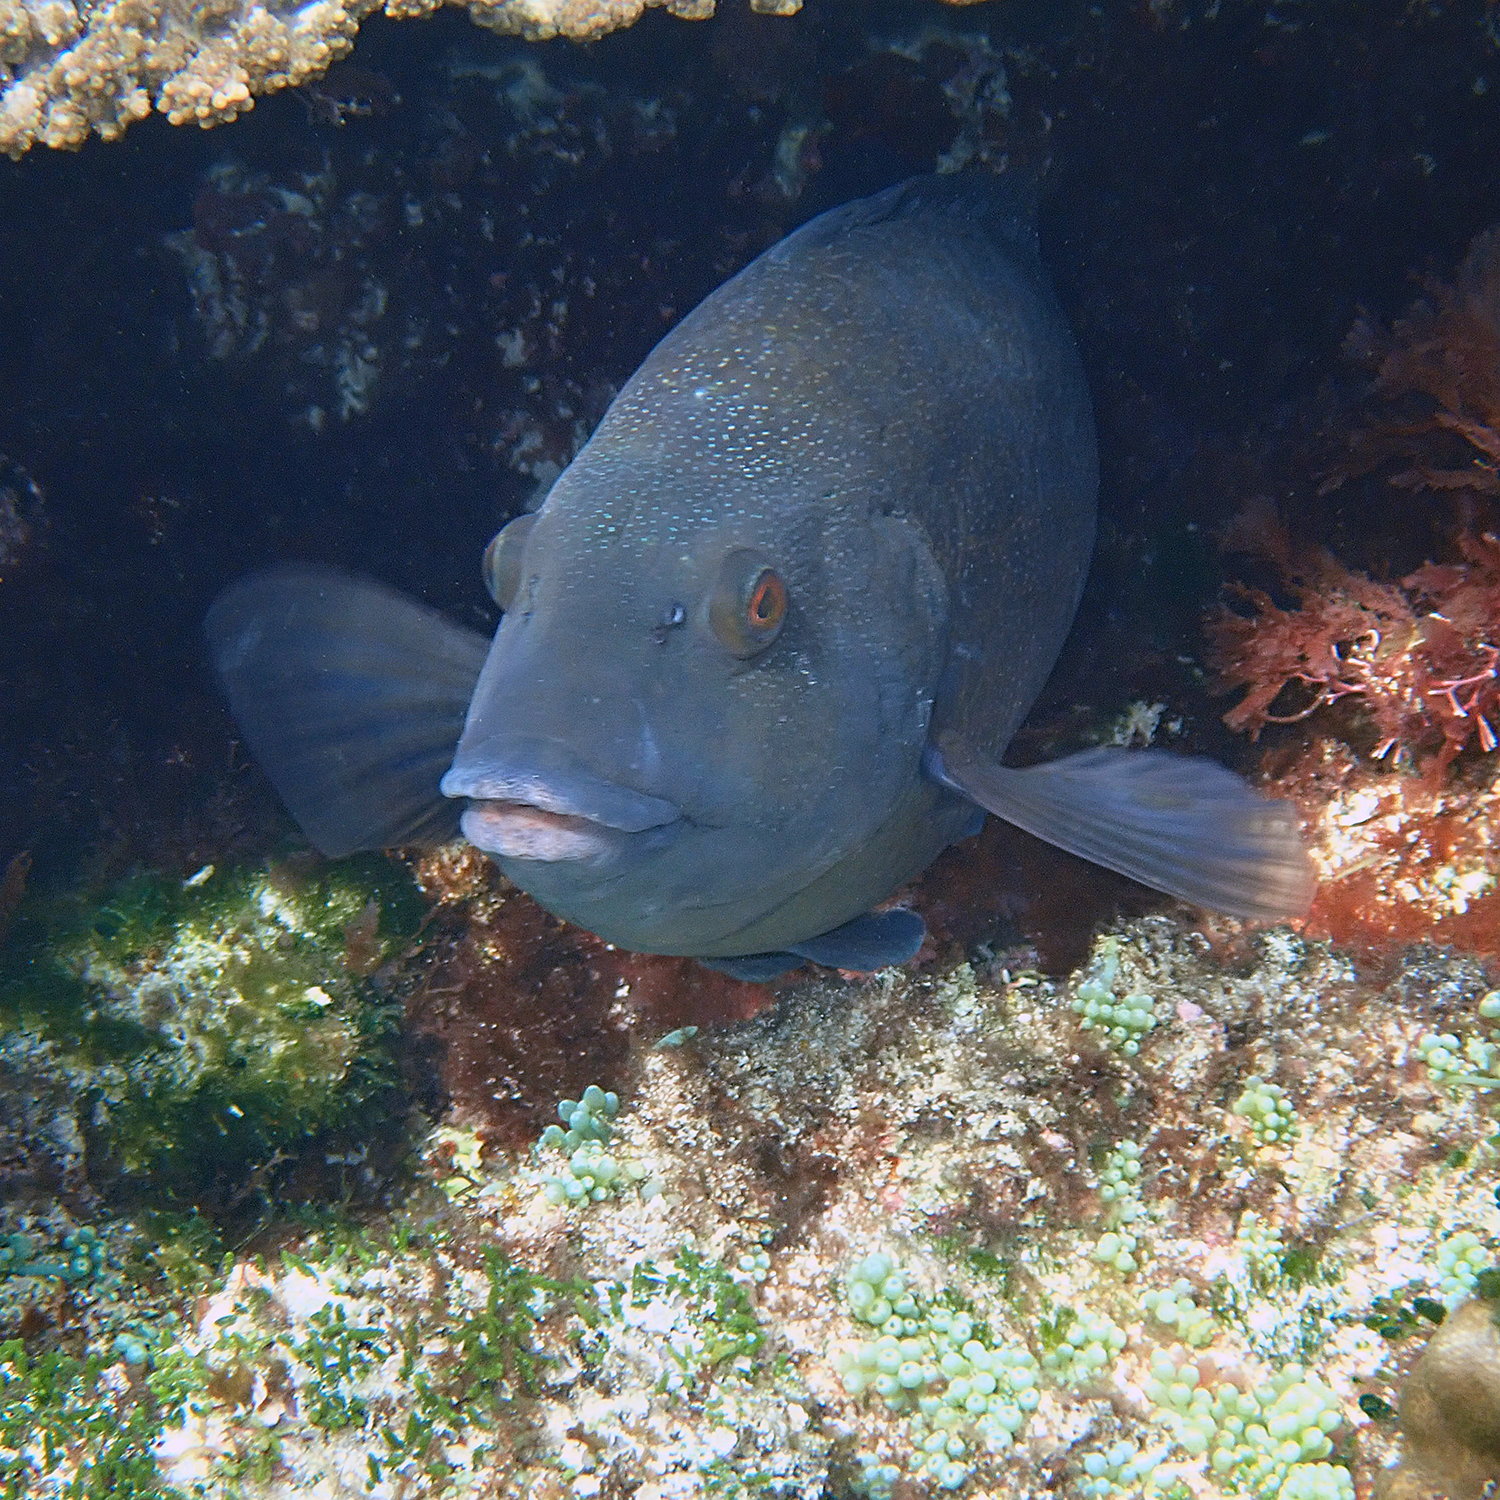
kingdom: Animalia
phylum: Chordata
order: Perciformes
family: Labridae
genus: Notolabrus
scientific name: Notolabrus inscriptus
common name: Green wrasse
